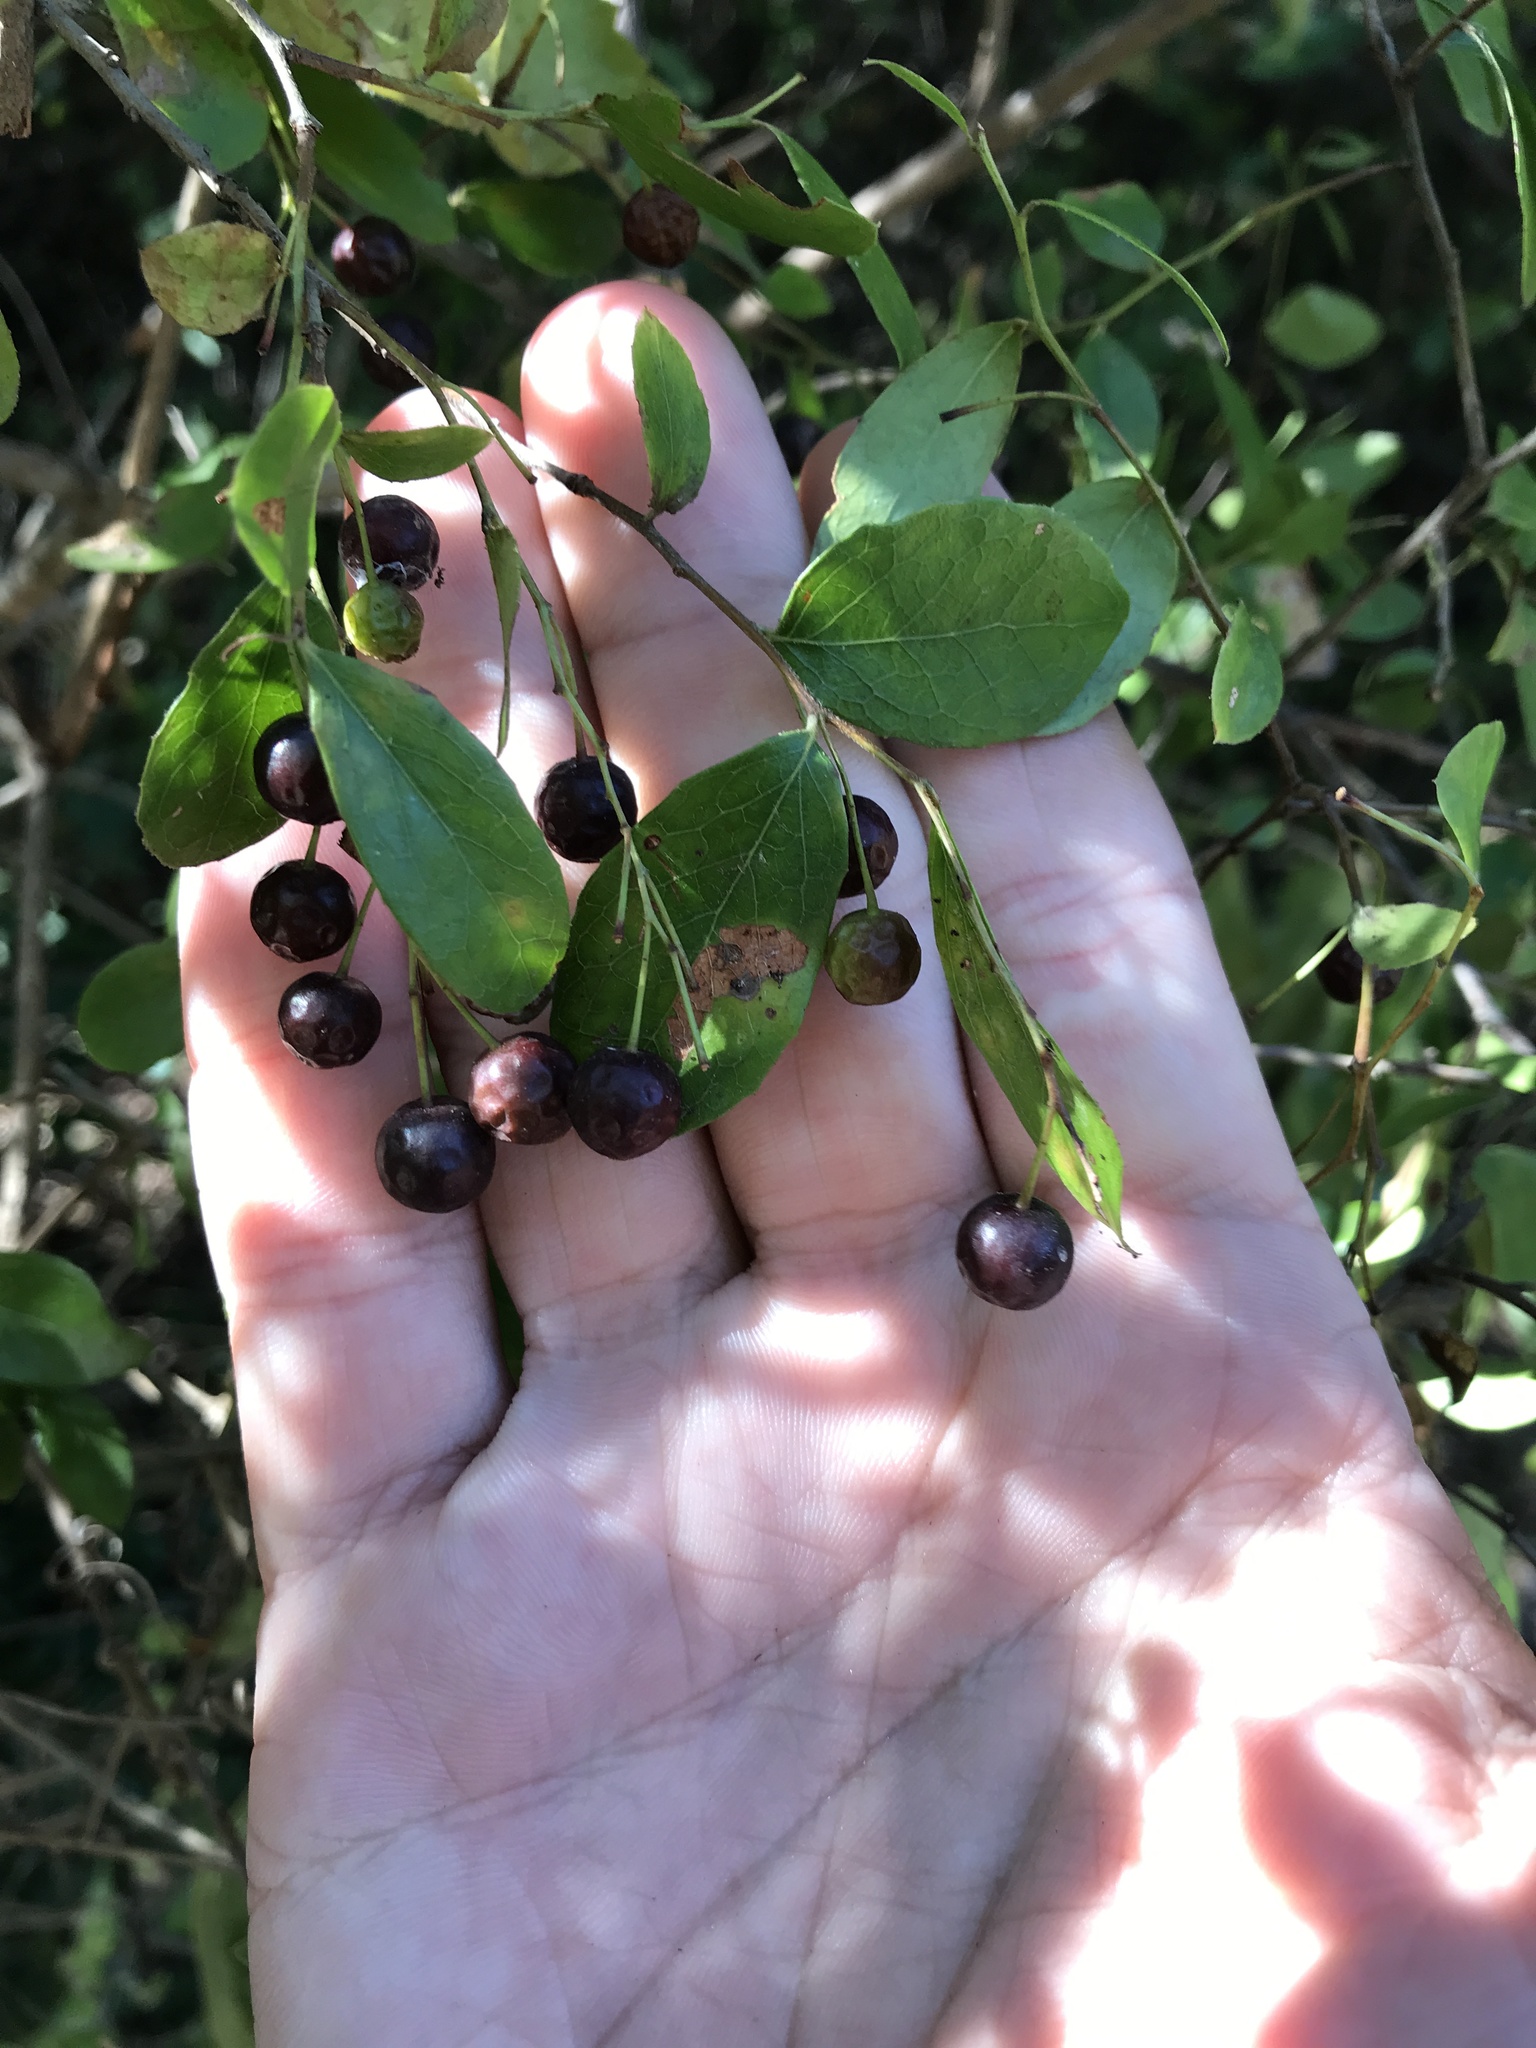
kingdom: Plantae
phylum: Tracheophyta
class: Magnoliopsida
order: Ericales
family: Ericaceae
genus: Vaccinium
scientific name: Vaccinium arboreum
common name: Farkleberry
